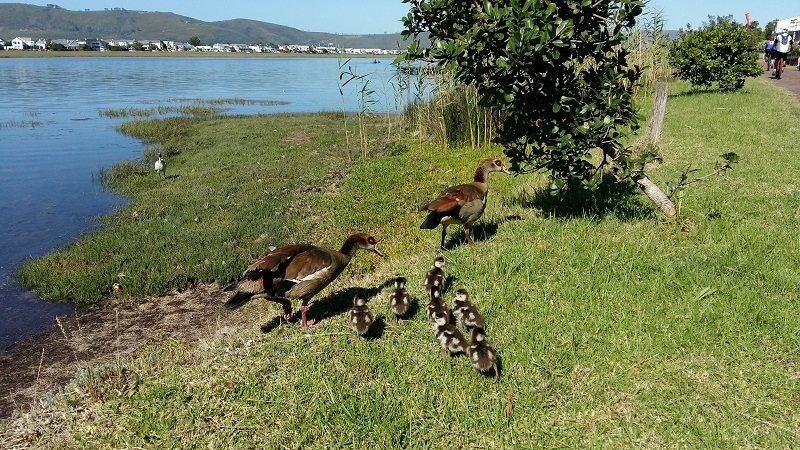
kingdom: Animalia
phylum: Chordata
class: Aves
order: Anseriformes
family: Anatidae
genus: Alopochen
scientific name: Alopochen aegyptiaca
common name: Egyptian goose
